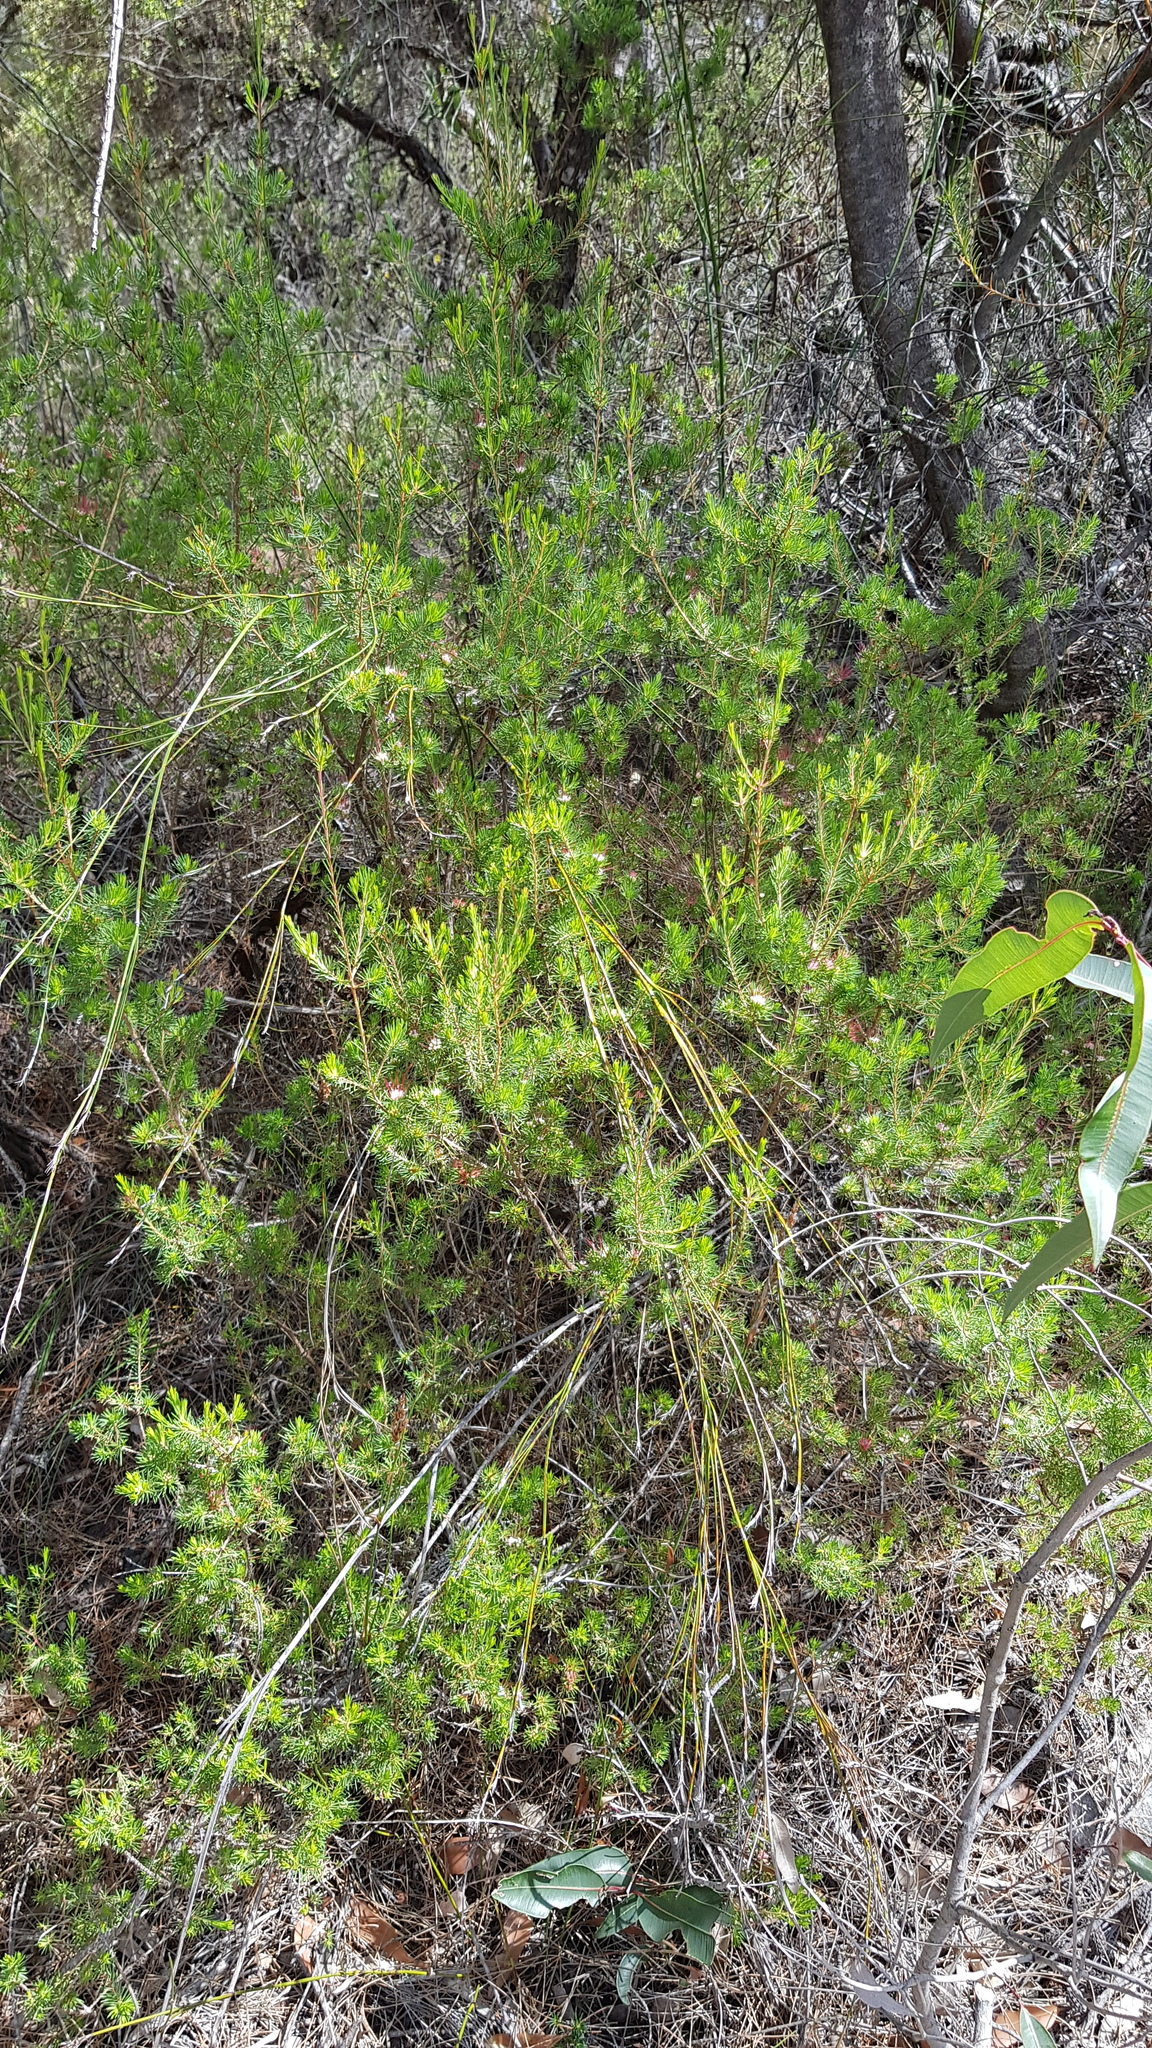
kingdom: Plantae
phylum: Tracheophyta
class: Magnoliopsida
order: Myrtales
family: Myrtaceae
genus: Darwinia
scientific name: Darwinia fascicularis
